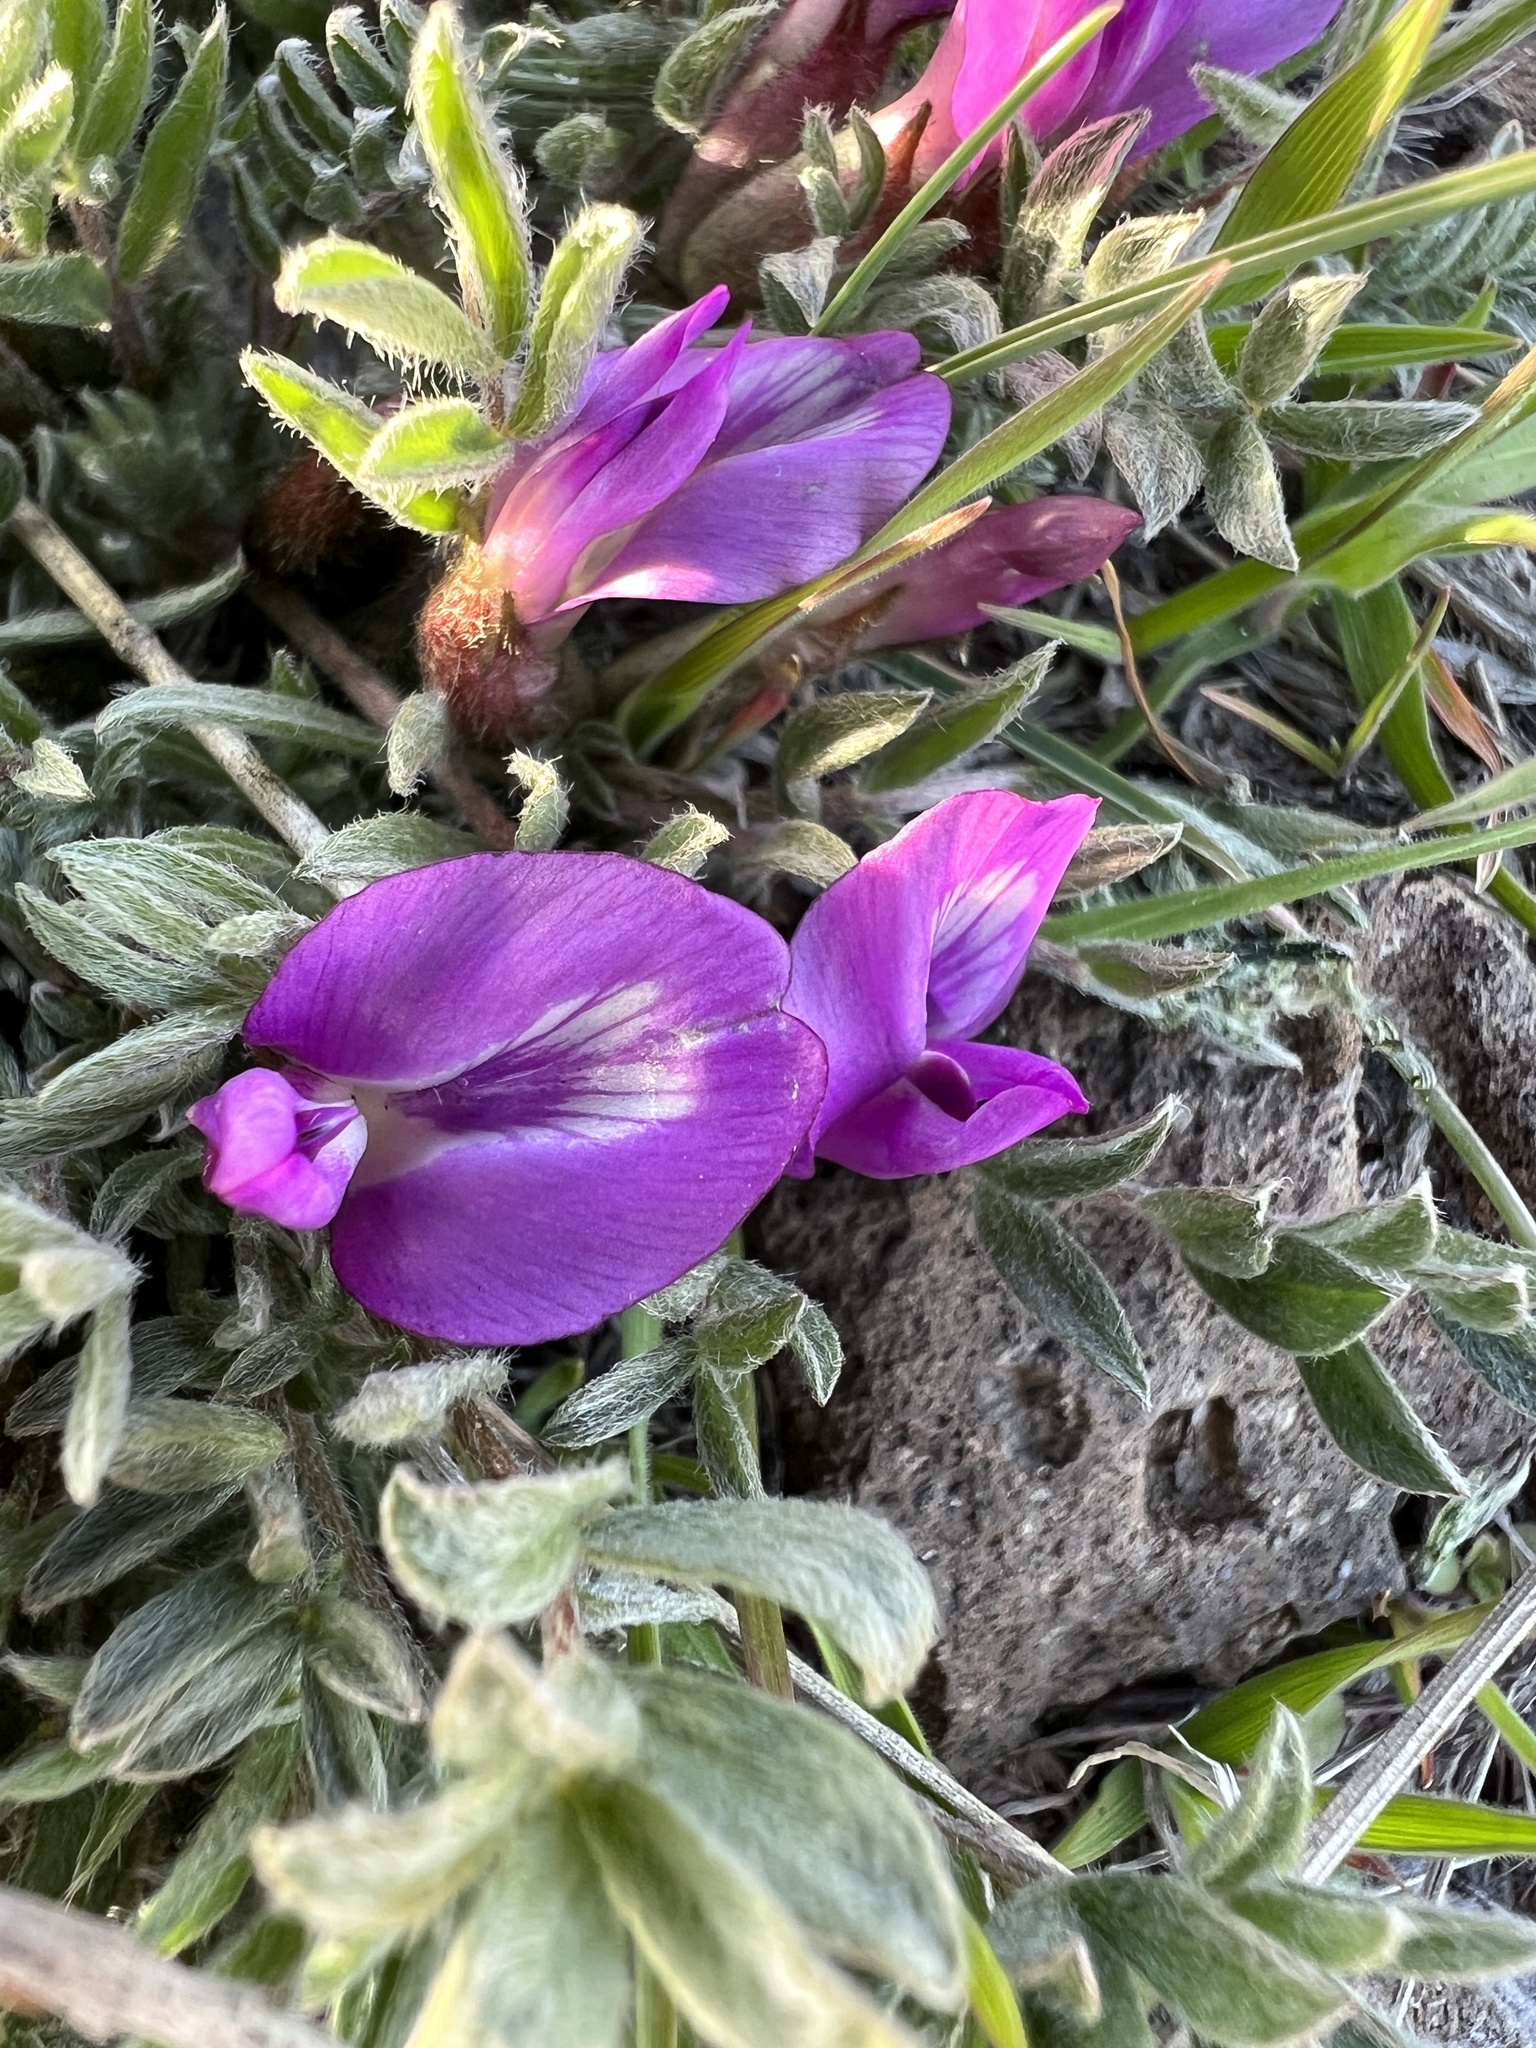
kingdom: Plantae
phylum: Tracheophyta
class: Magnoliopsida
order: Fabales
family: Fabaceae
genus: Astragalus
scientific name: Astragalus purshii
